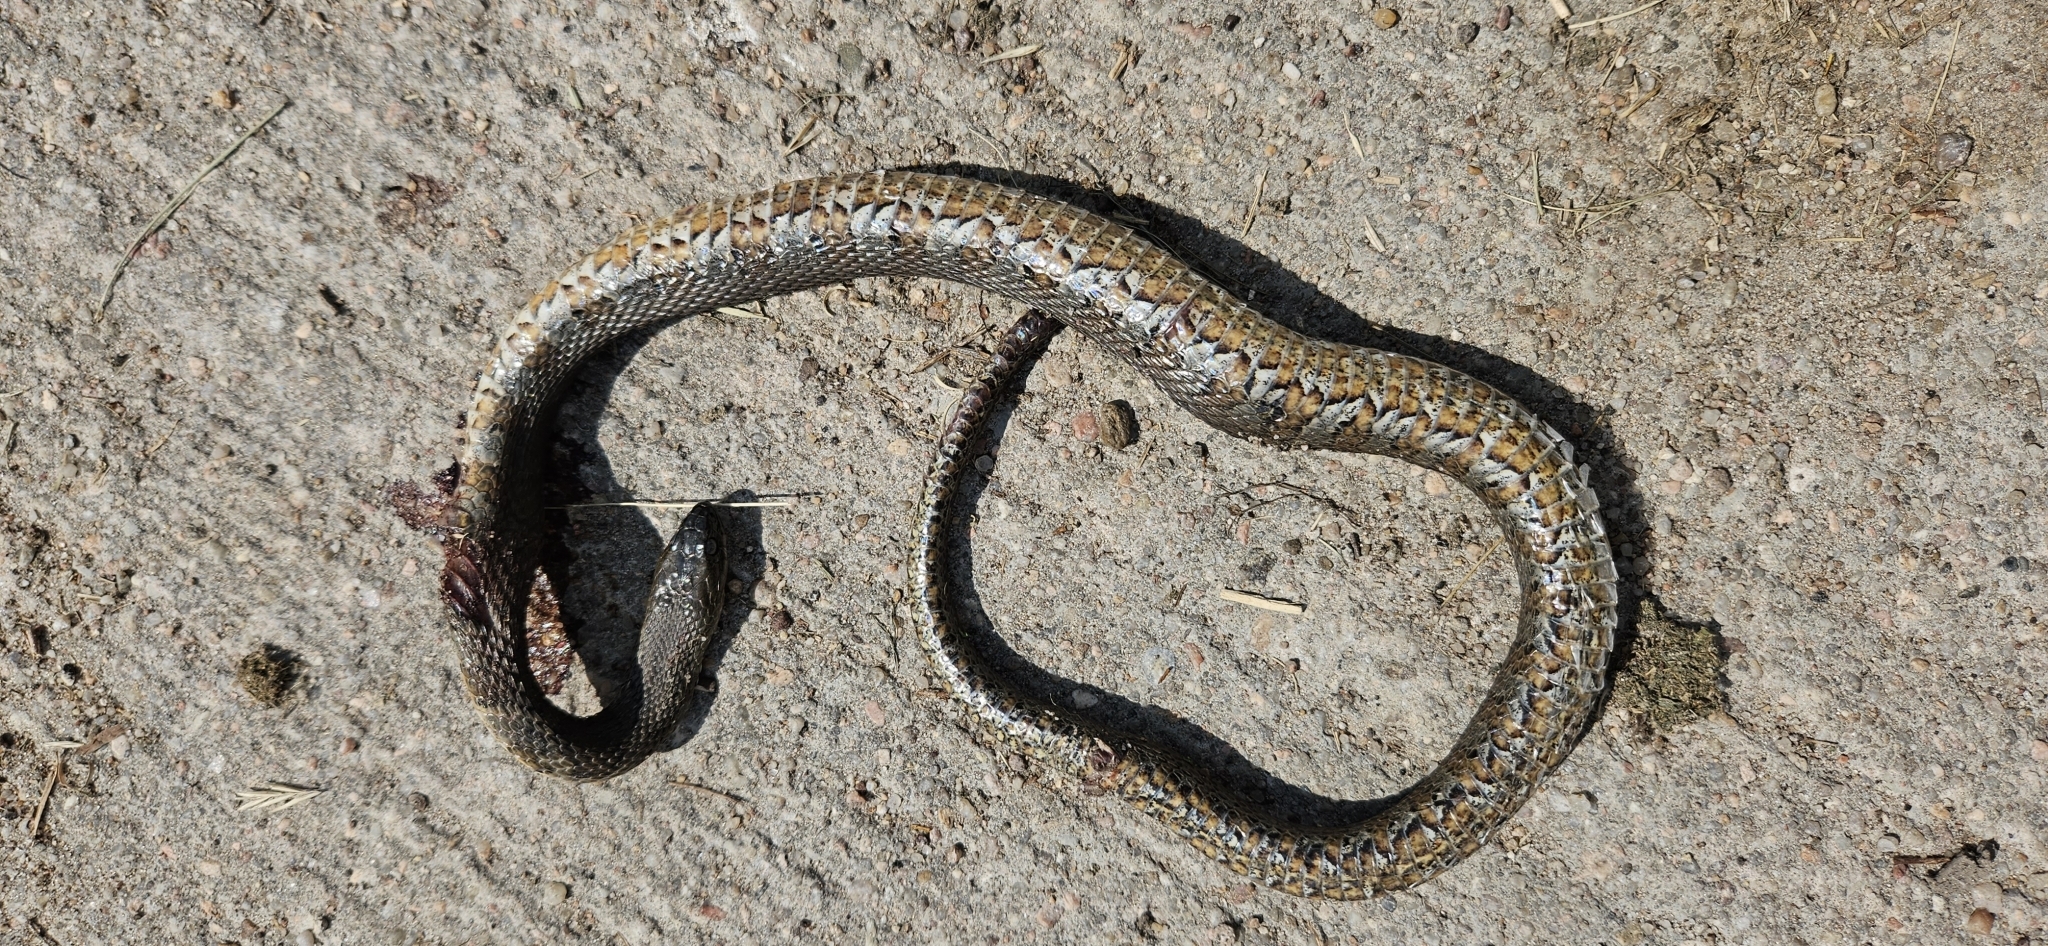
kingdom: Animalia
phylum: Chordata
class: Squamata
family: Colubridae
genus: Nerodia
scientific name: Nerodia sipedon
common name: Northern water snake
